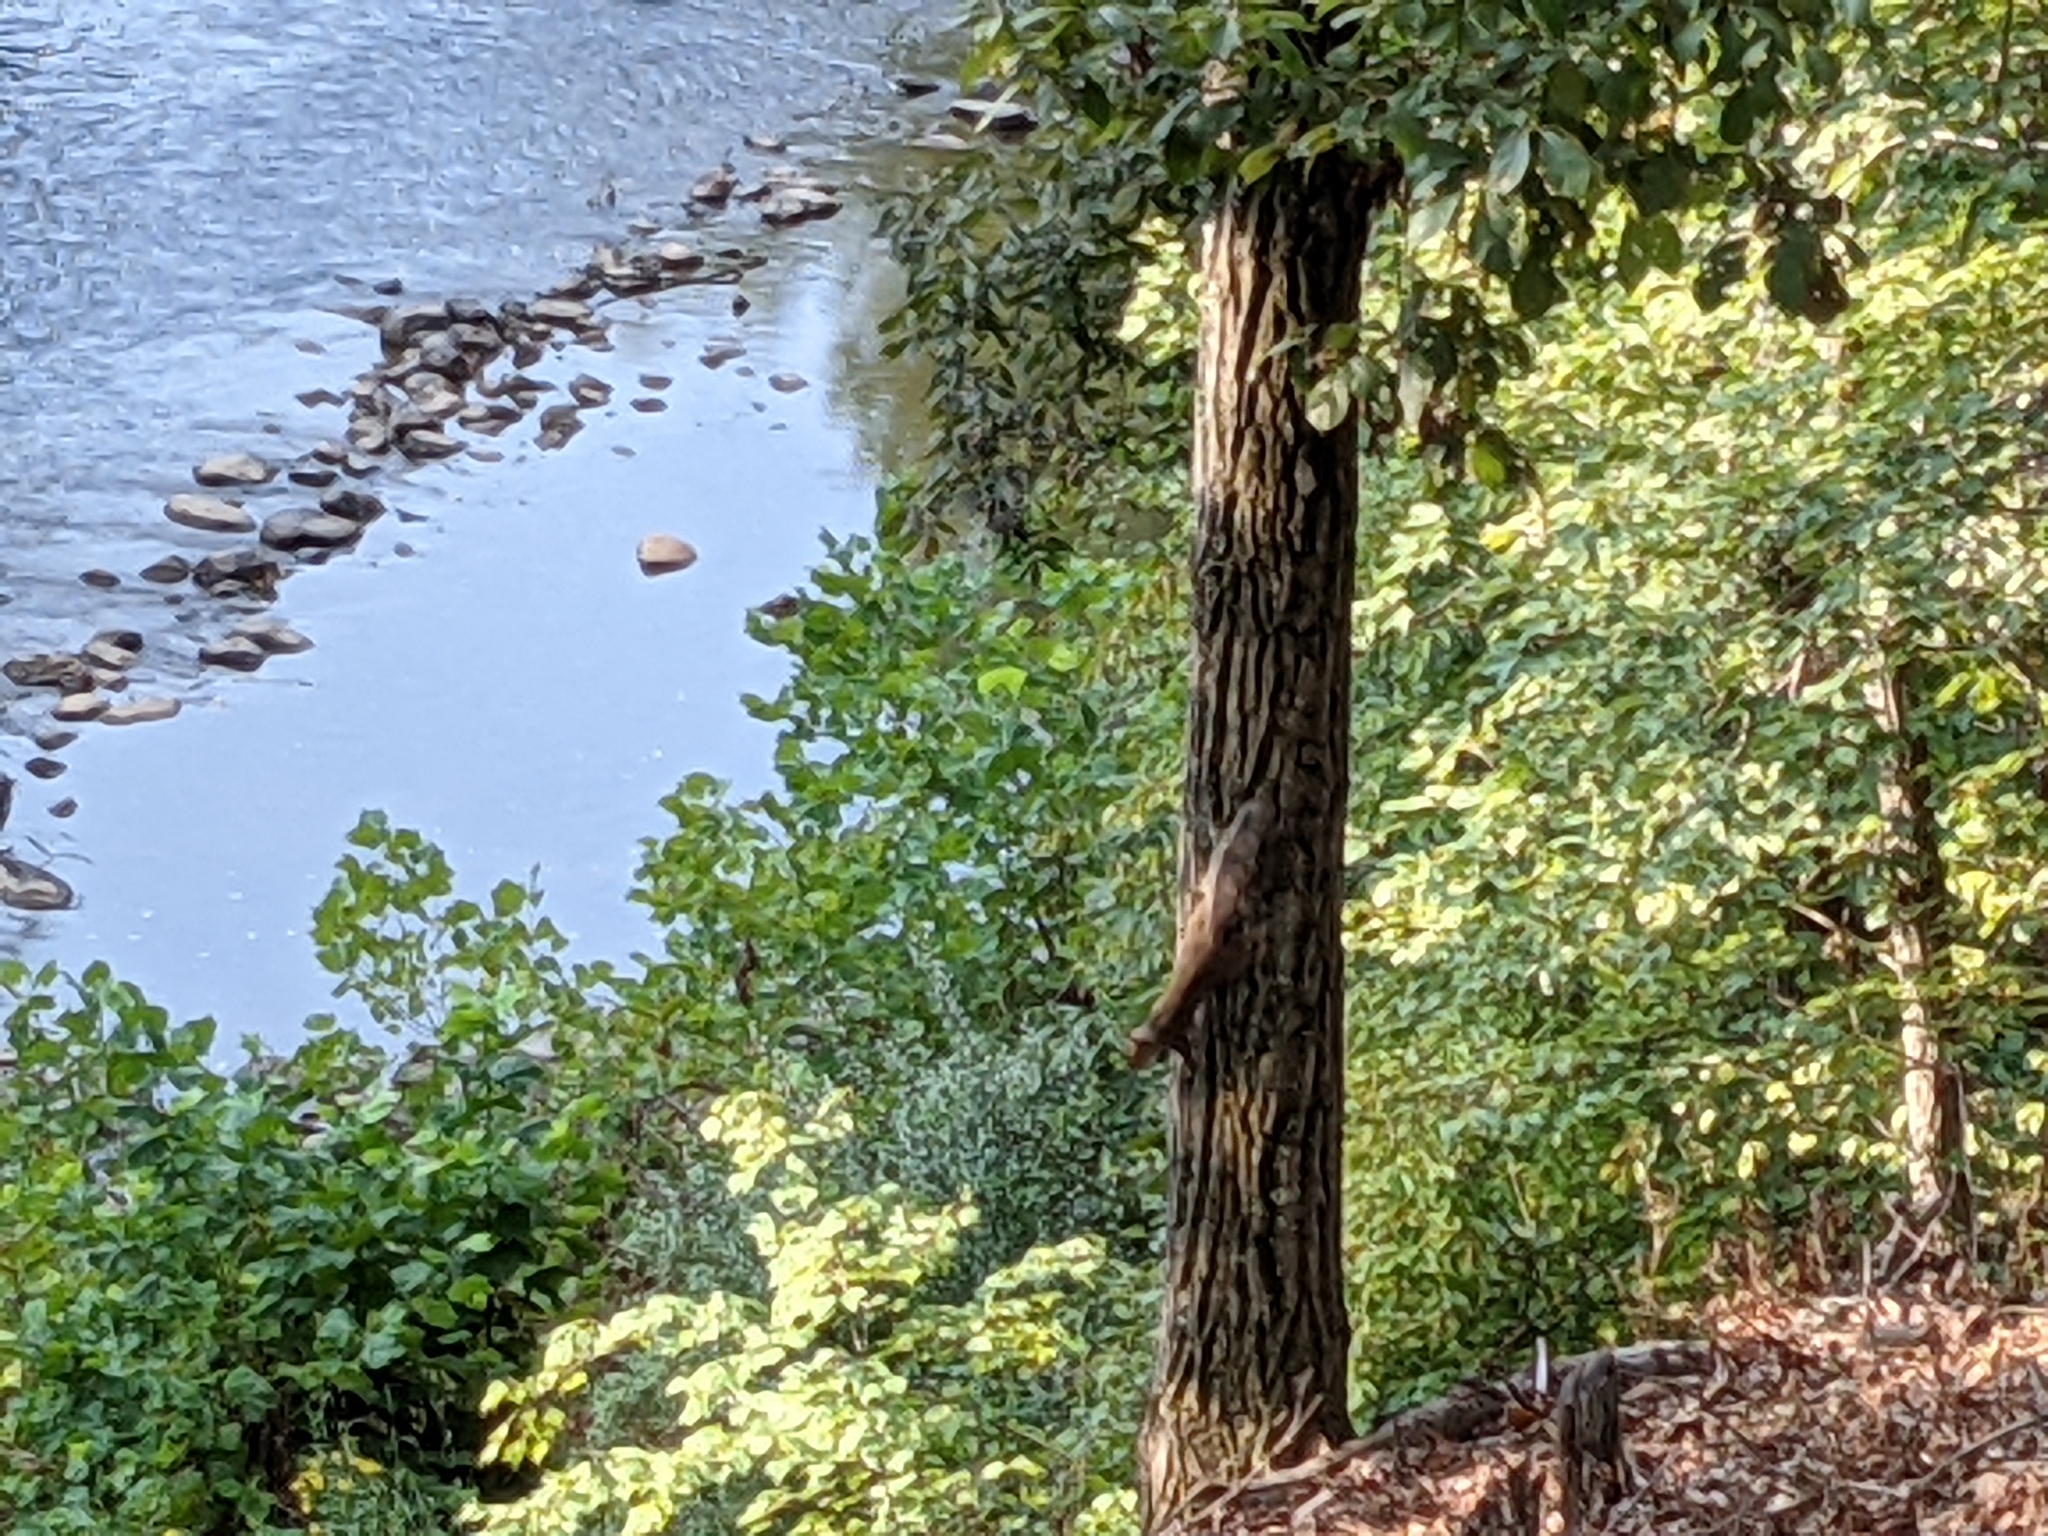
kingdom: Animalia
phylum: Chordata
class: Mammalia
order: Rodentia
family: Sciuridae
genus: Sciurus
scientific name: Sciurus carolinensis
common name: Eastern gray squirrel
